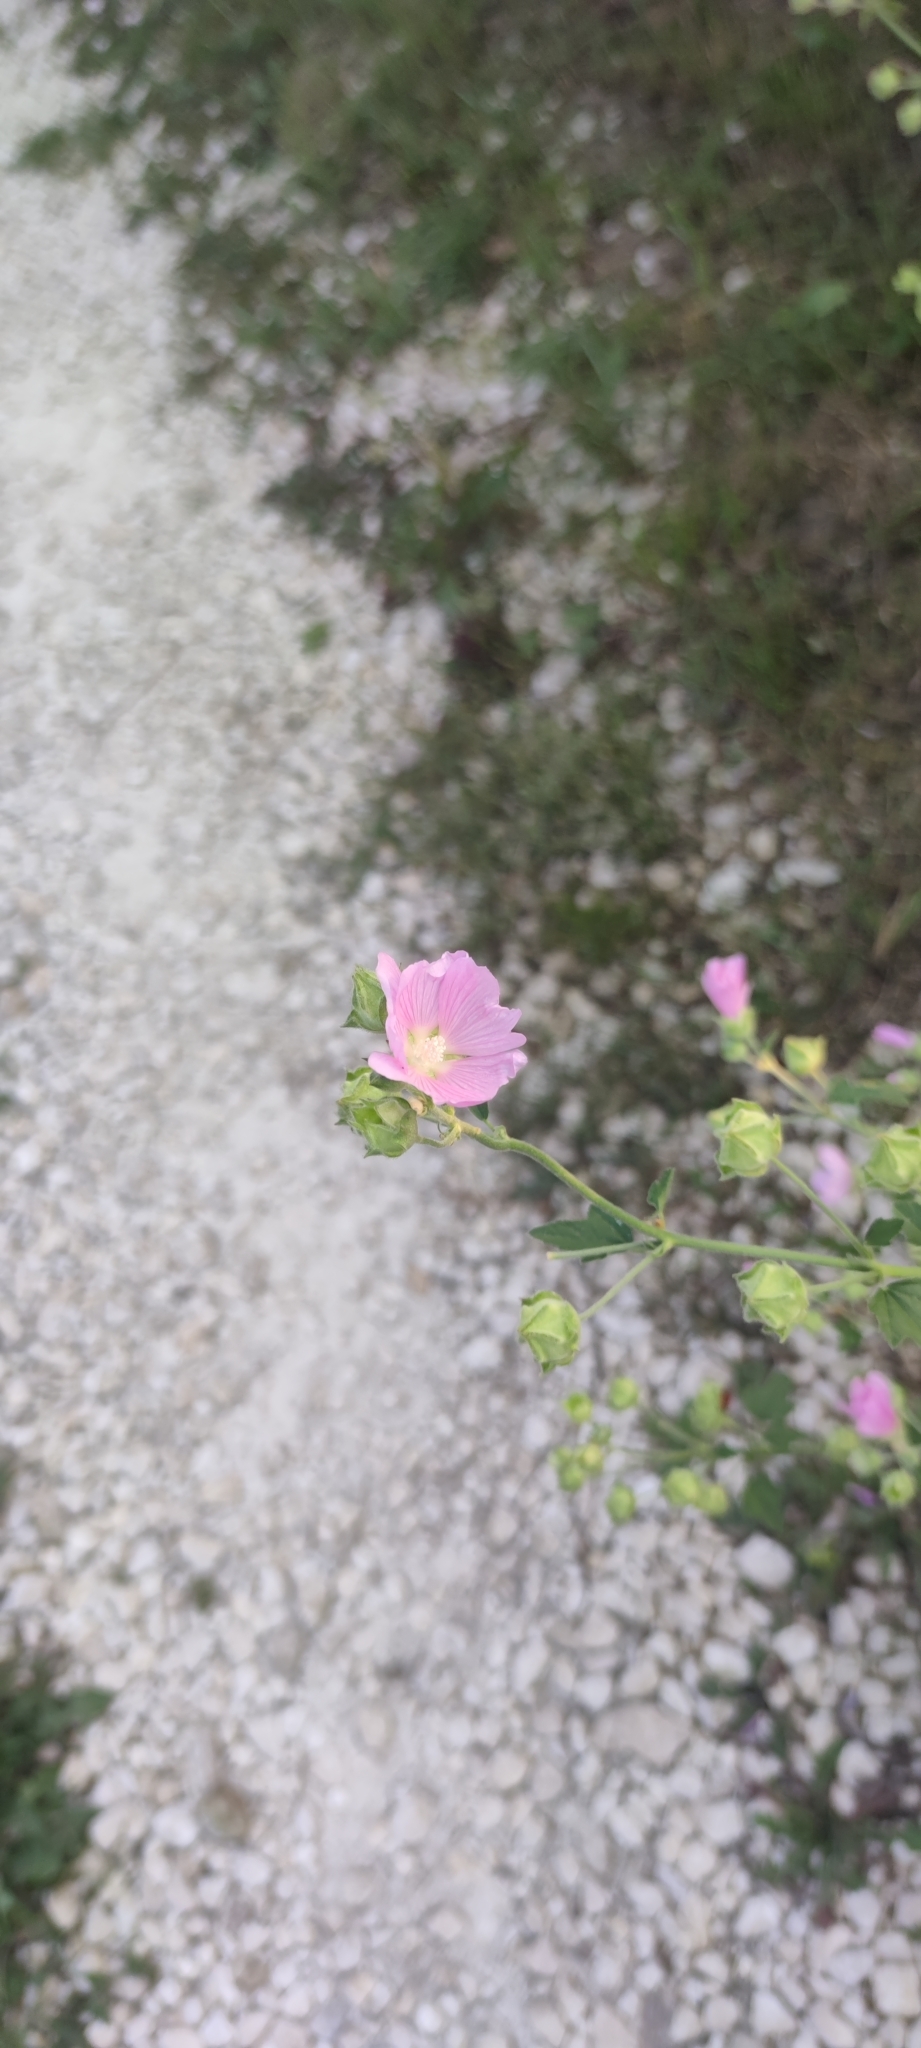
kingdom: Plantae
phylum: Tracheophyta
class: Magnoliopsida
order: Malvales
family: Malvaceae
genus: Malva
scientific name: Malva thuringiaca
